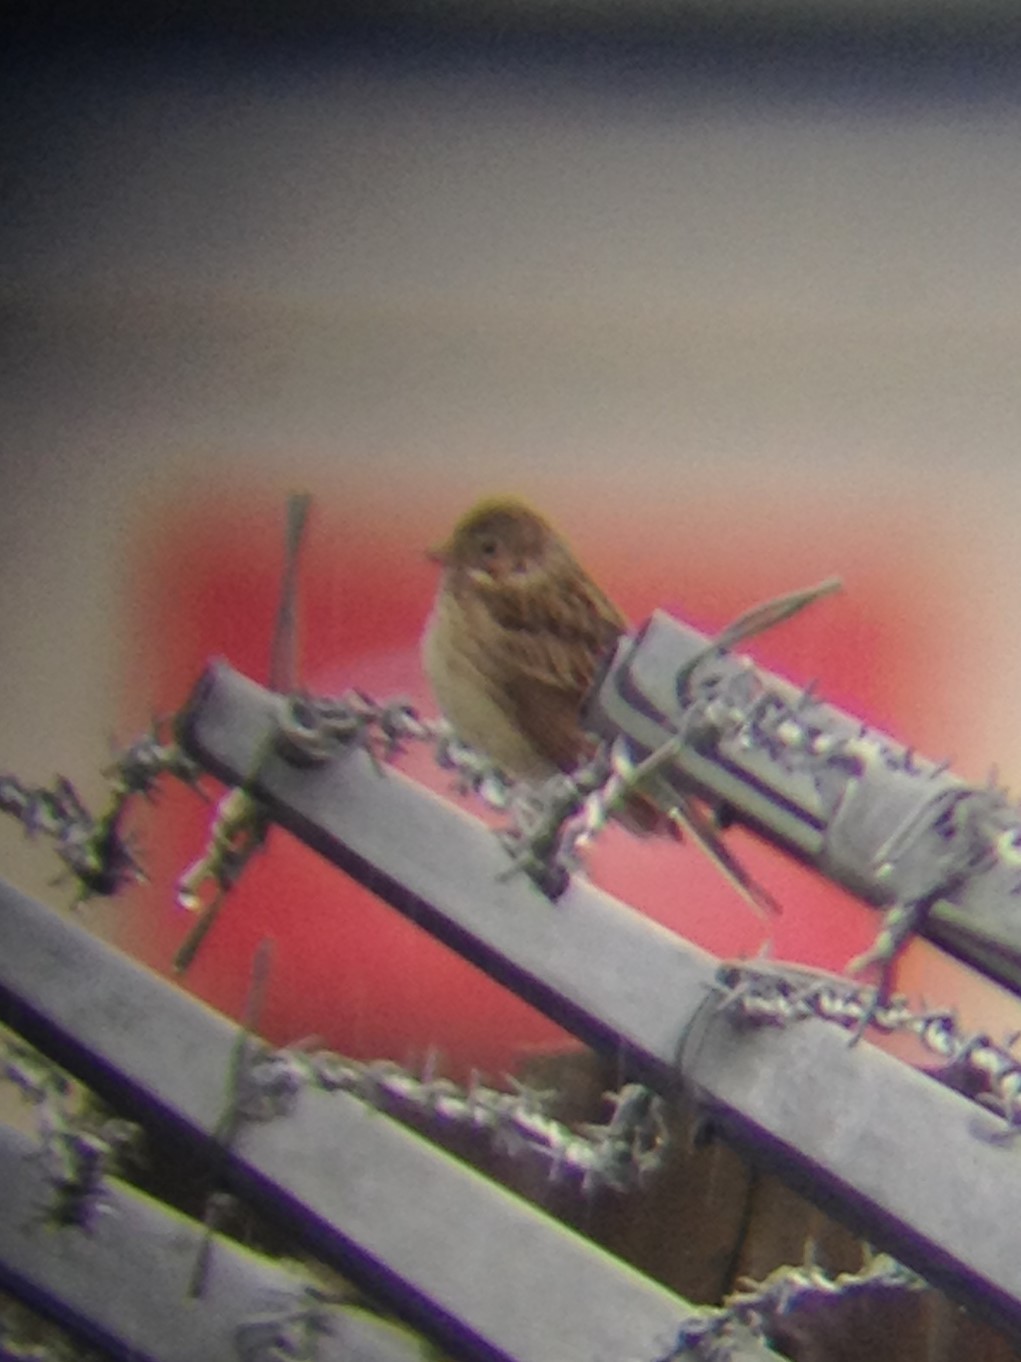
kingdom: Animalia
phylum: Chordata
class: Aves
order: Passeriformes
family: Passerellidae
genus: Pooecetes
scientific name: Pooecetes gramineus
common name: Vesper sparrow
